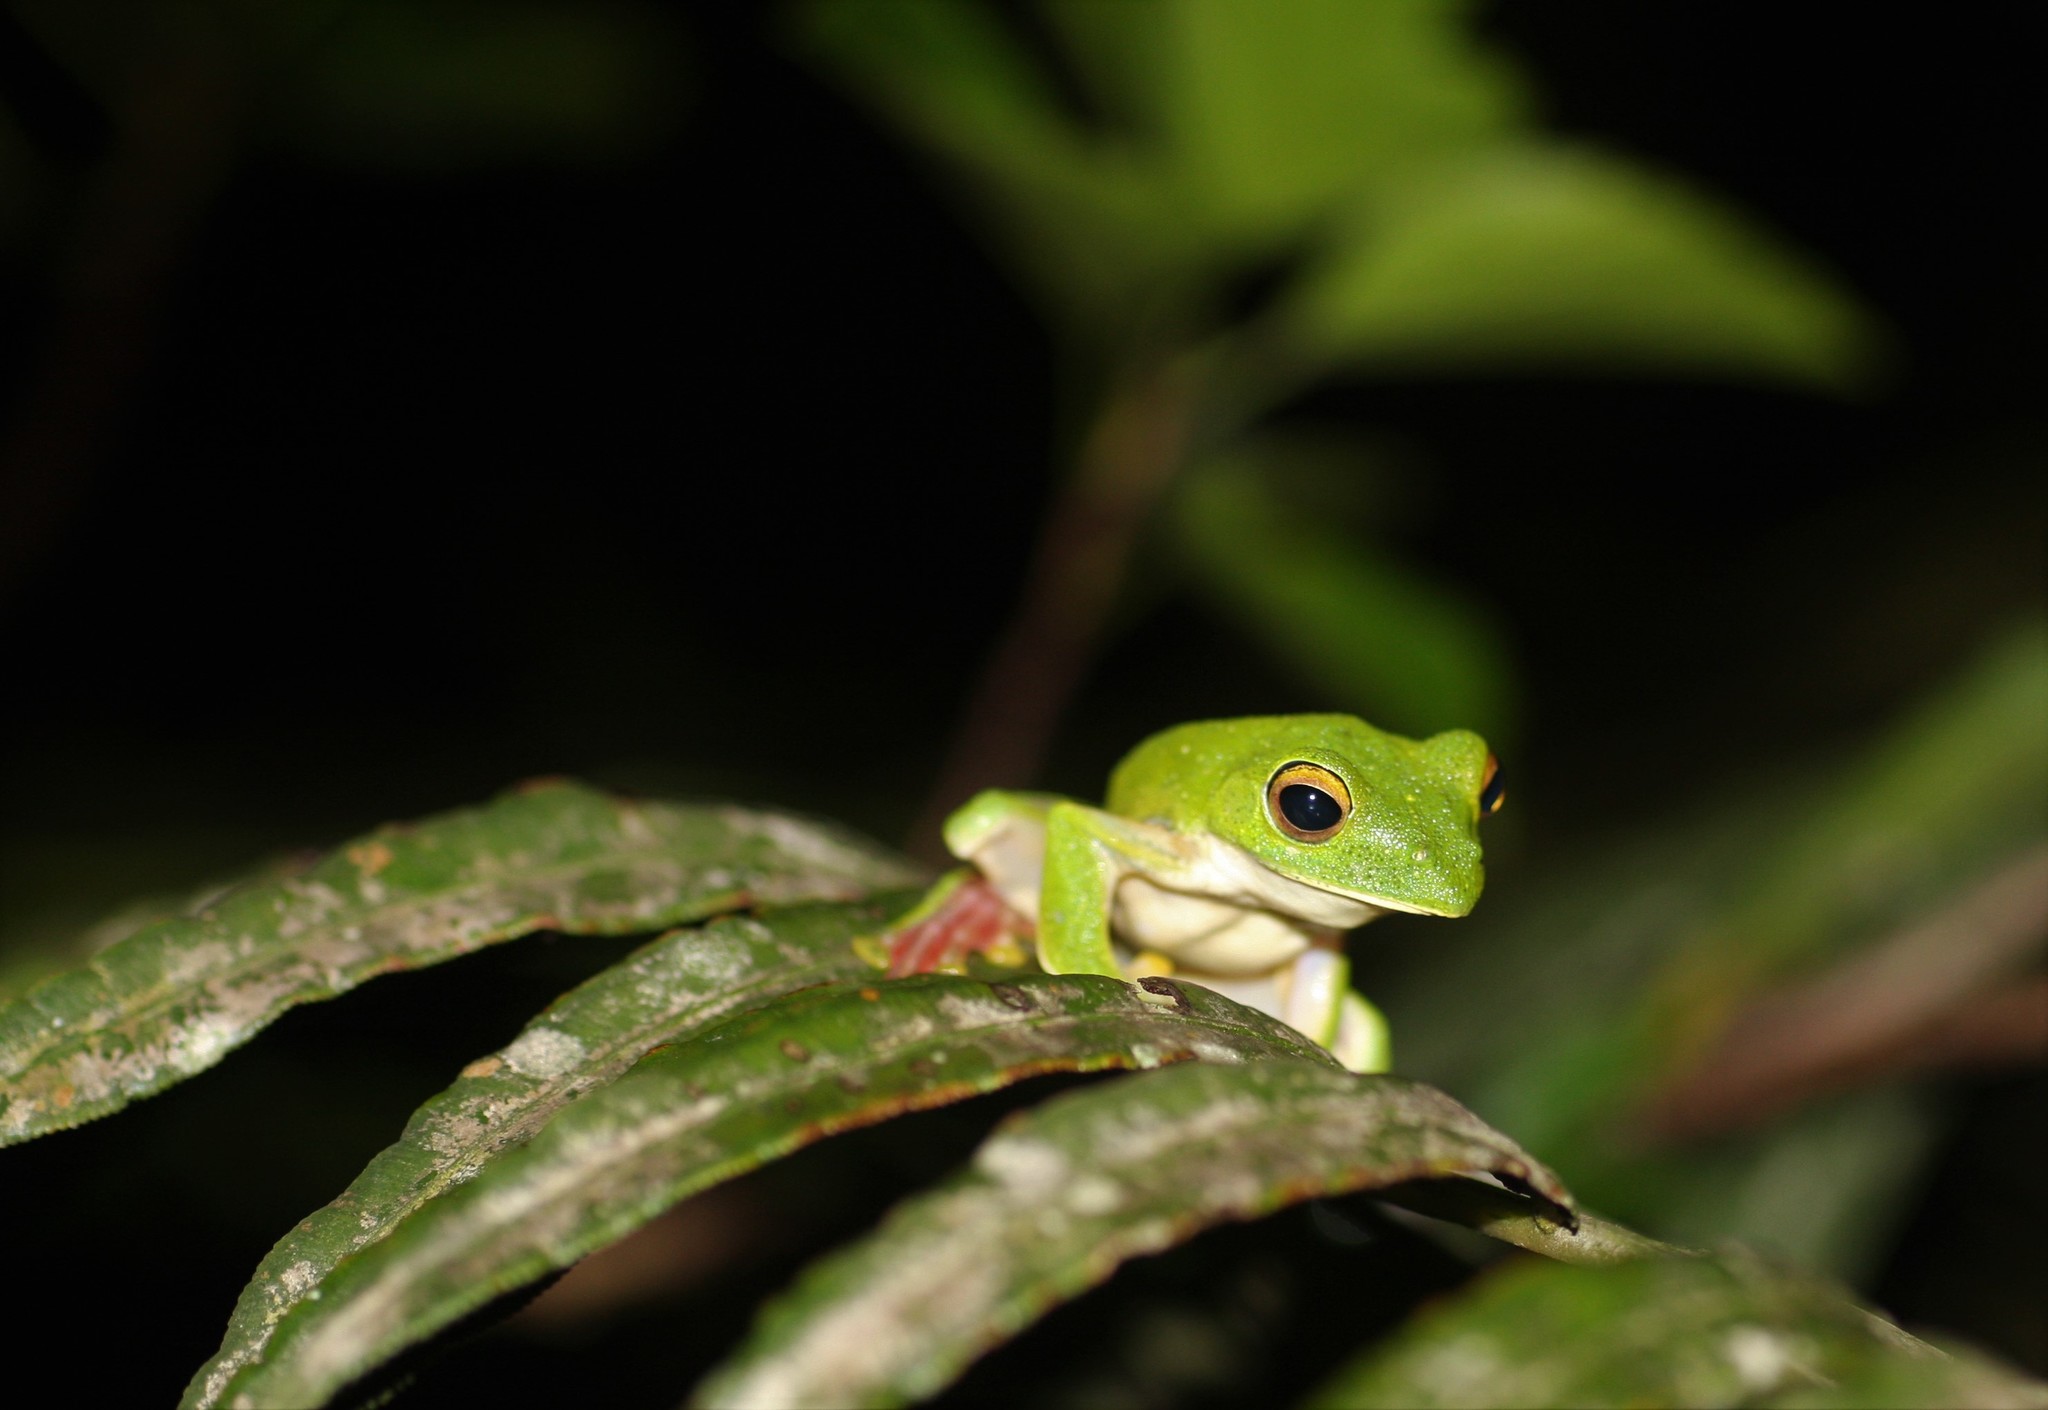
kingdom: Animalia
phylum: Chordata
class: Amphibia
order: Anura
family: Rhacophoridae
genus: Rhacophorus
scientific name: Rhacophorus malabaricus
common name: Malabar gliding frog
